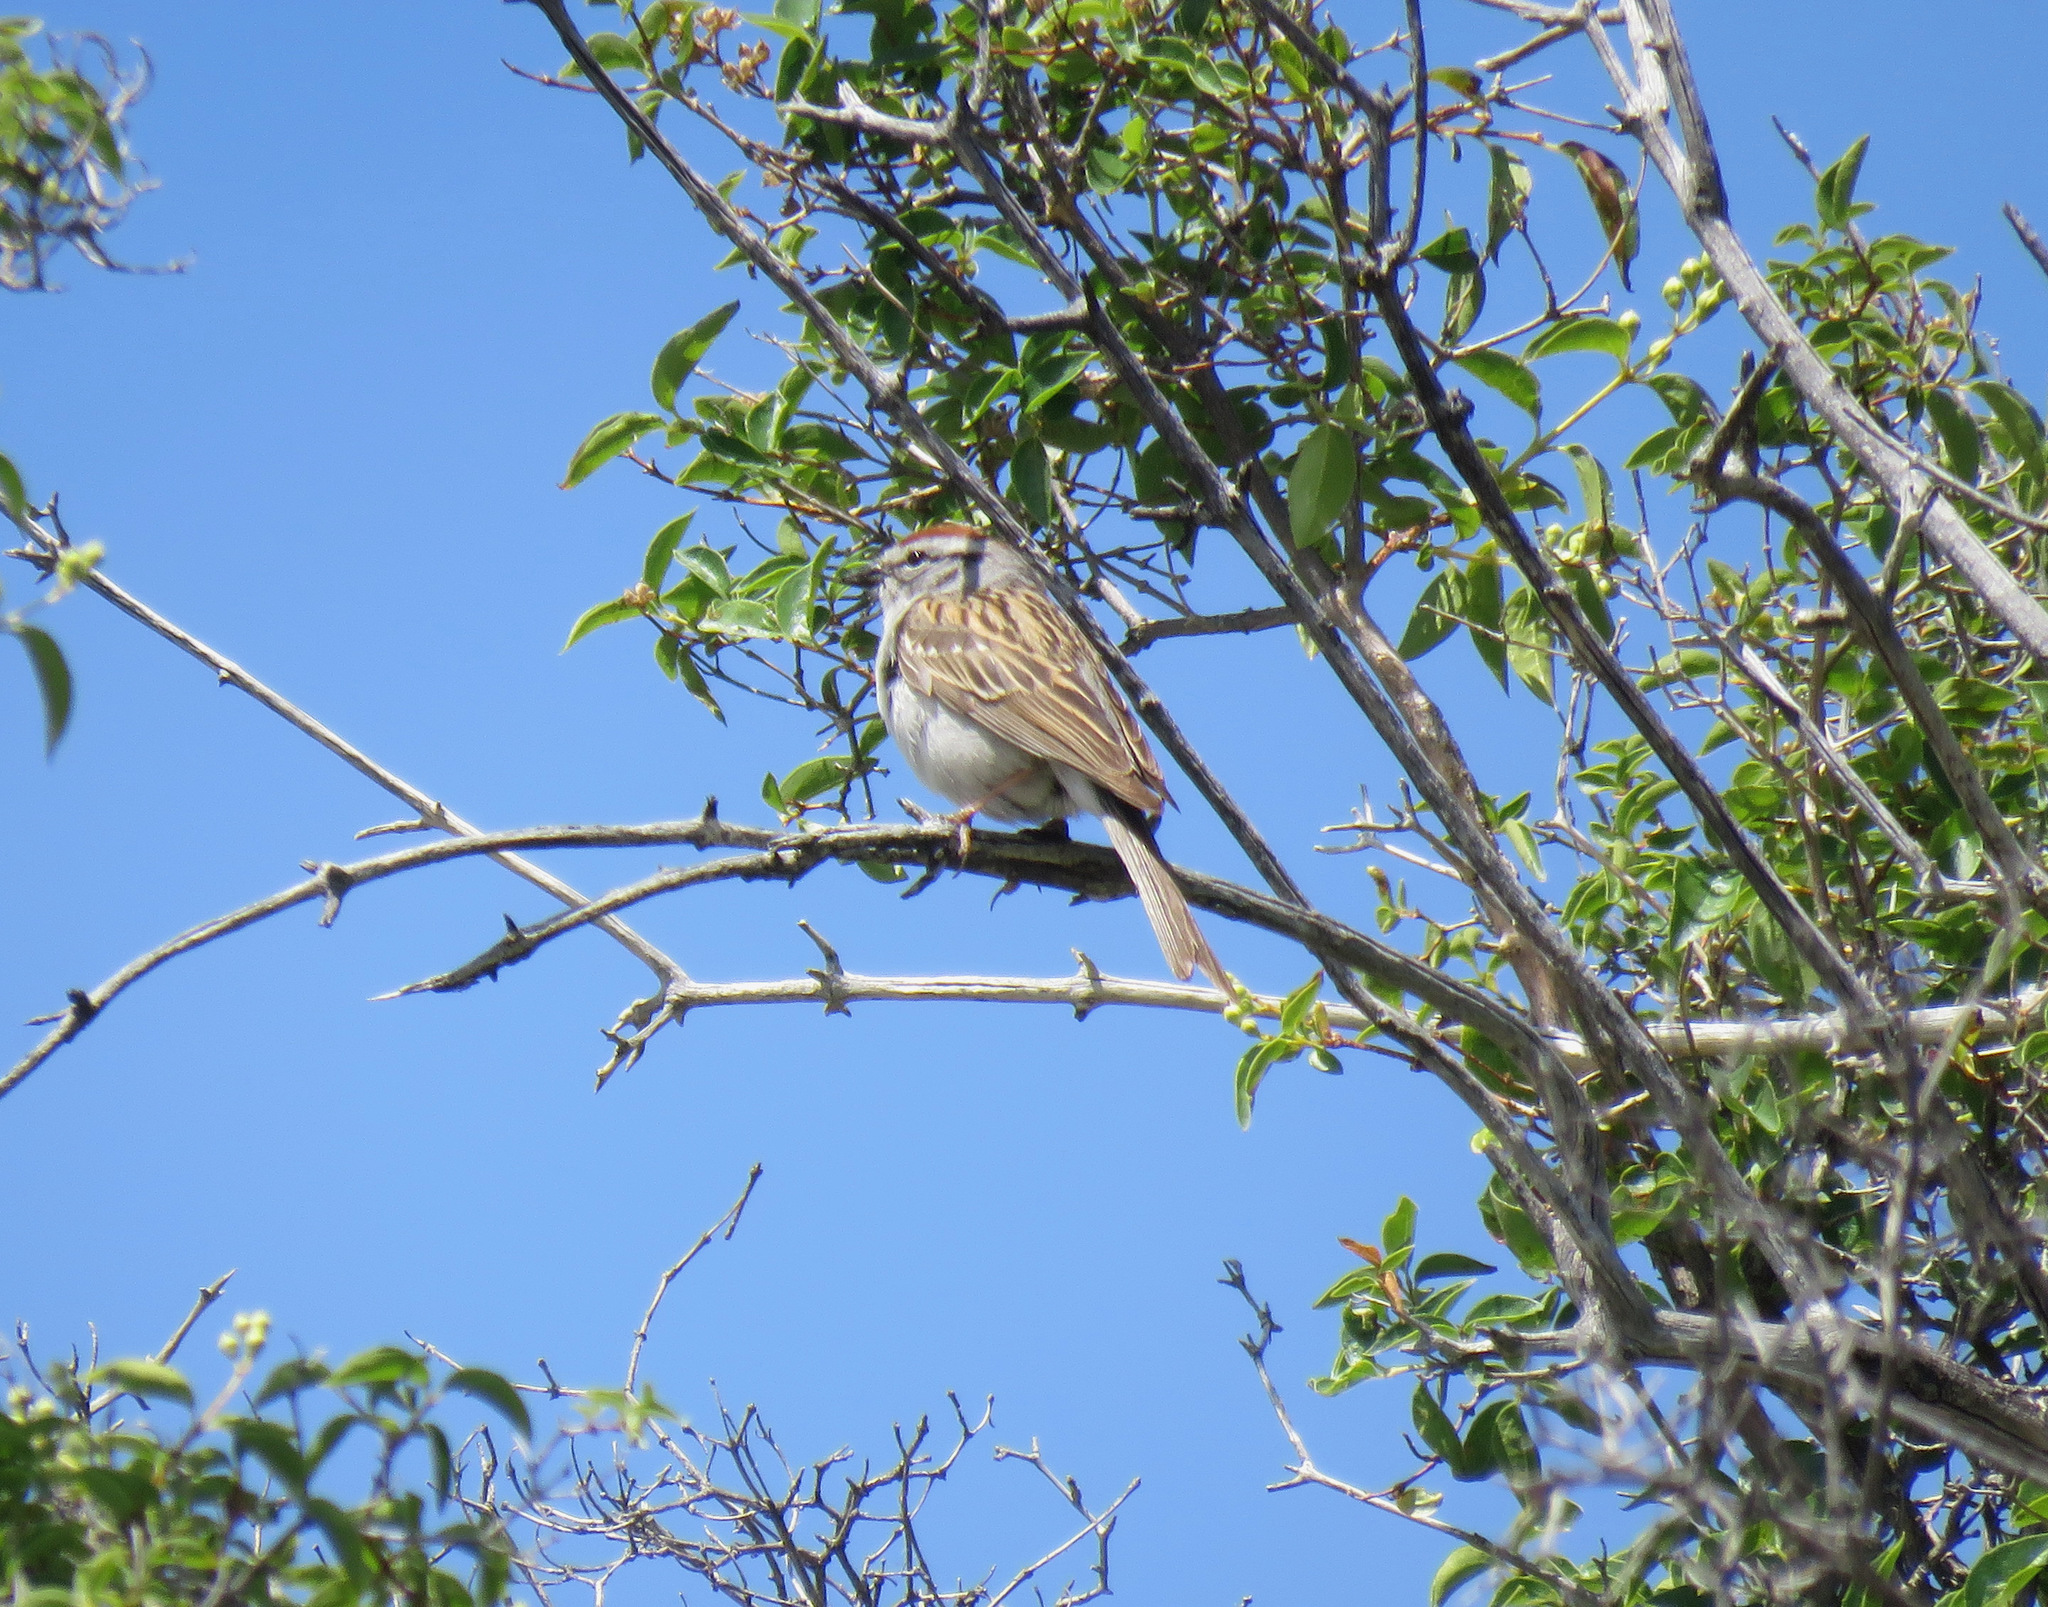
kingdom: Animalia
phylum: Chordata
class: Aves
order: Passeriformes
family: Passerellidae
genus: Spizella
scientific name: Spizella passerina
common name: Chipping sparrow
